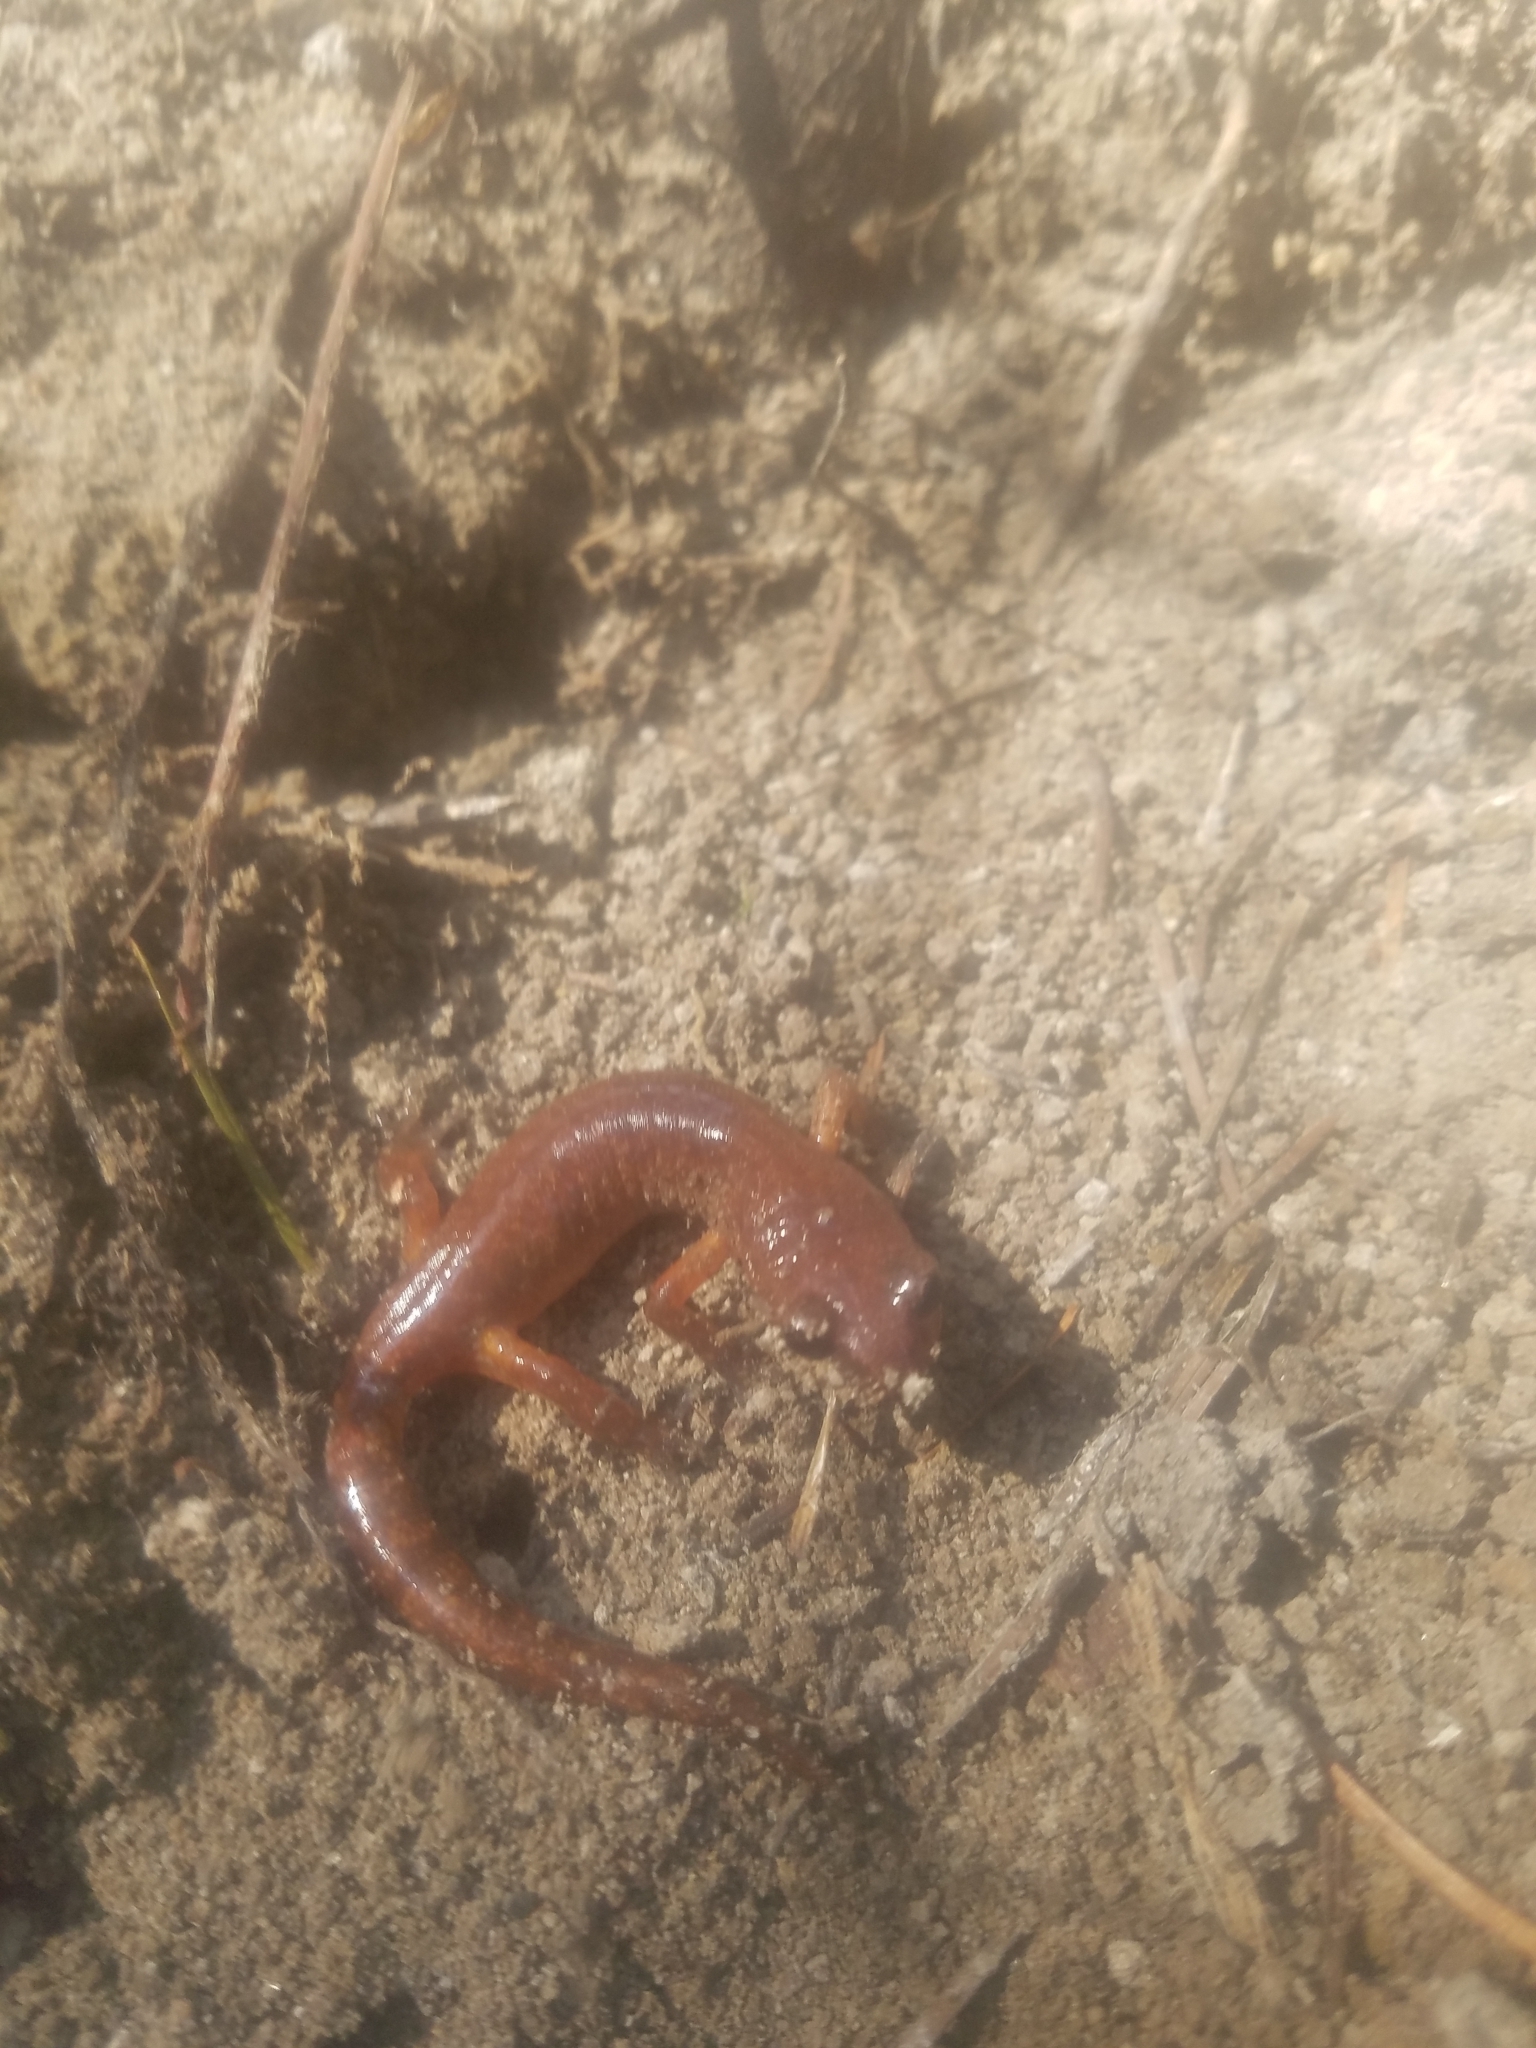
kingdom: Animalia
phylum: Chordata
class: Amphibia
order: Caudata
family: Plethodontidae
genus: Ensatina
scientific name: Ensatina eschscholtzii
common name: Ensatina
